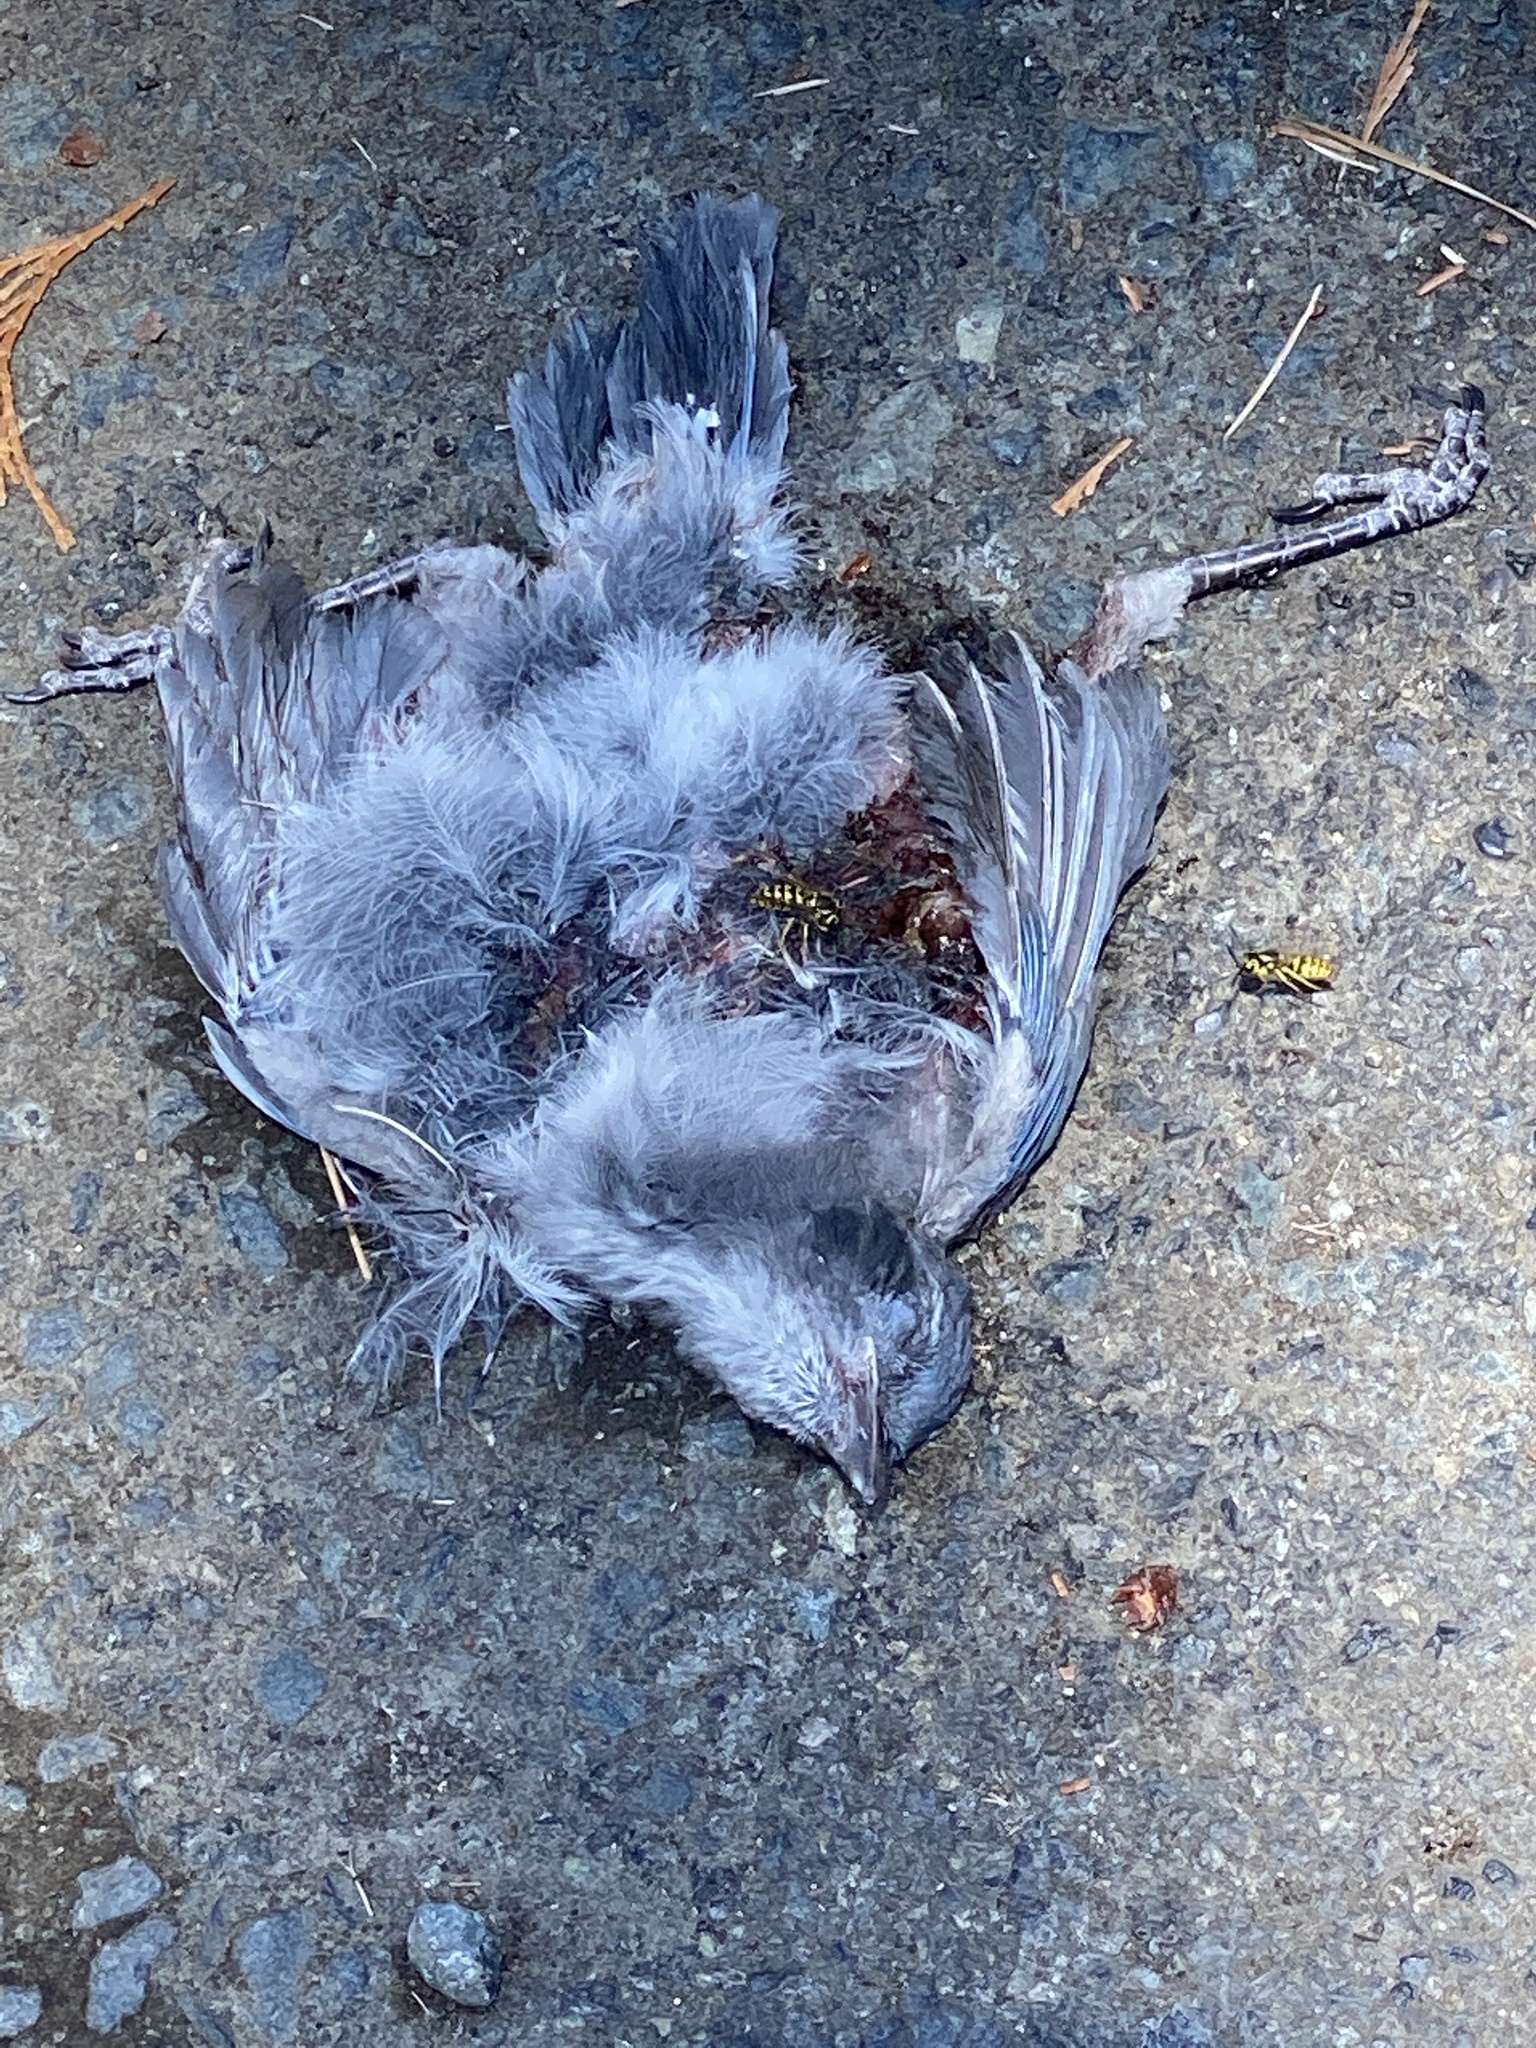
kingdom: Animalia
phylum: Chordata
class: Aves
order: Passeriformes
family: Corvidae
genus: Aphelocoma
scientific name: Aphelocoma californica
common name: California scrub-jay
